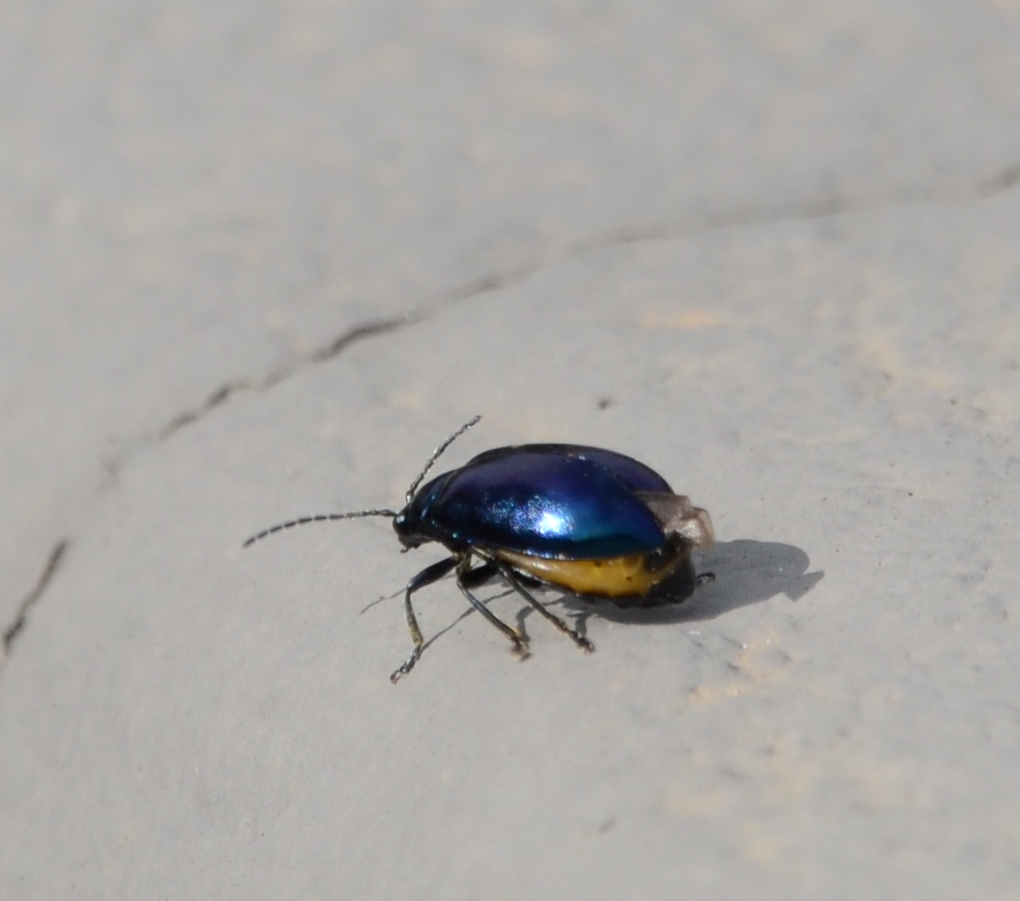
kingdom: Animalia
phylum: Arthropoda
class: Insecta
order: Coleoptera
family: Chrysomelidae
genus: Agelastica
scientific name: Agelastica alni
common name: Alder leaf beetle
